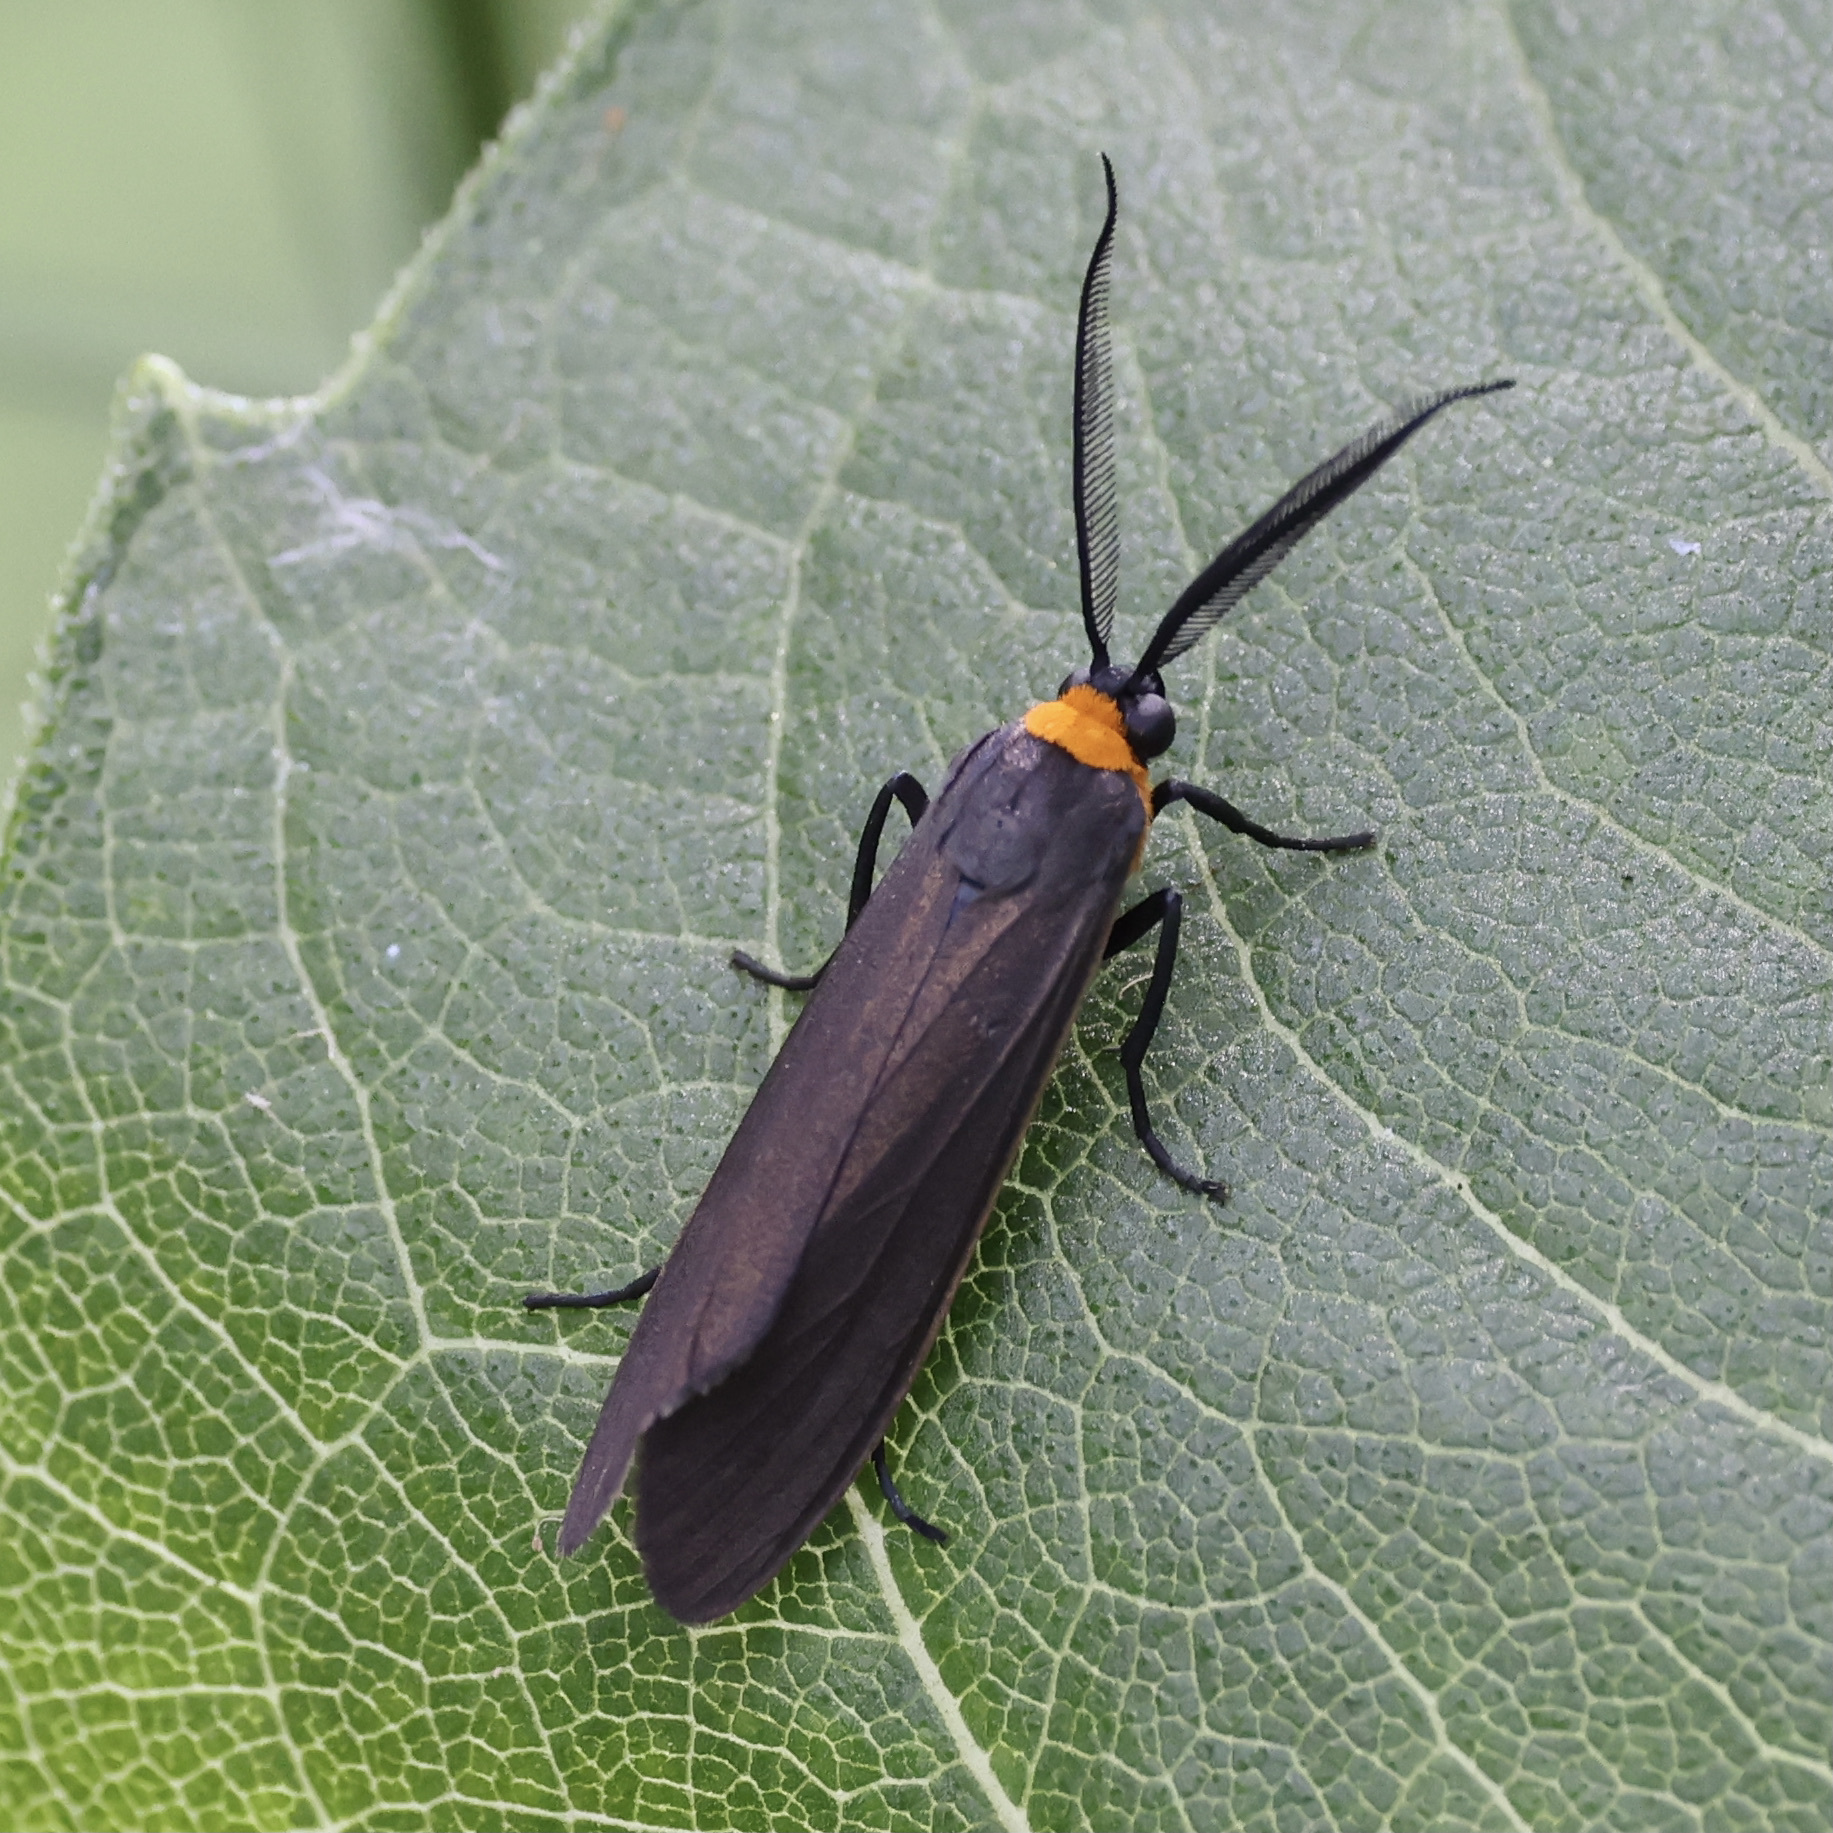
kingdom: Animalia
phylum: Arthropoda
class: Insecta
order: Lepidoptera
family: Erebidae
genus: Cisseps
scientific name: Cisseps fulvicollis
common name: Yellow-collared scape moth
